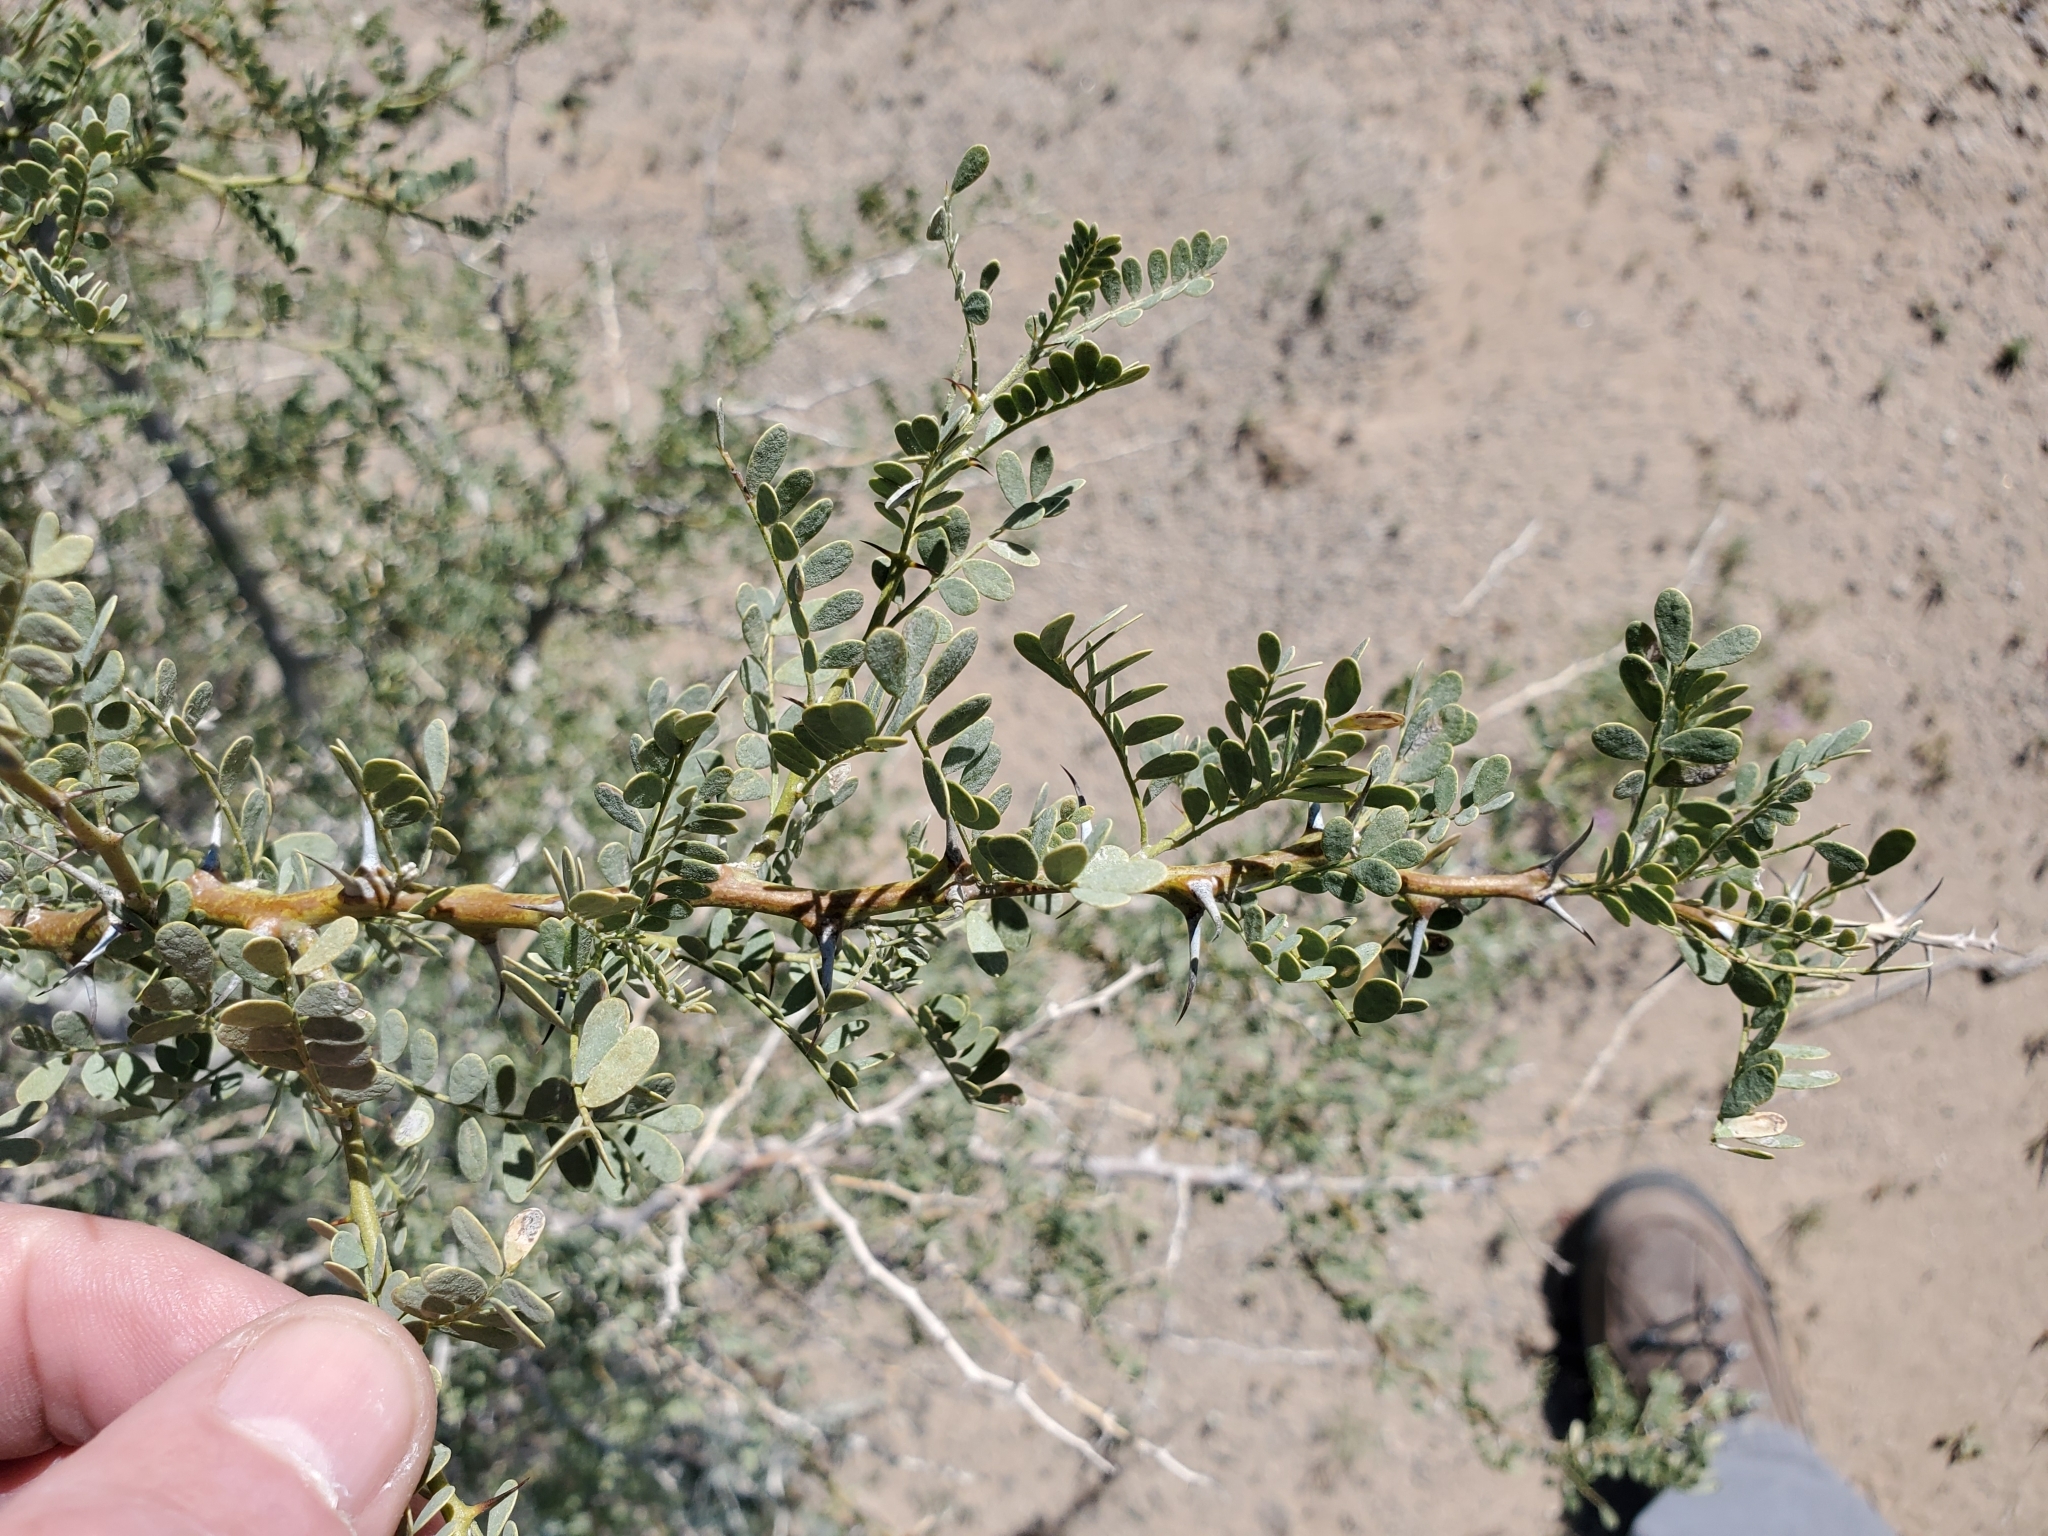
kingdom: Plantae
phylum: Tracheophyta
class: Magnoliopsida
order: Fabales
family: Fabaceae
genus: Olneya
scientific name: Olneya tesota
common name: Desert ironwood
